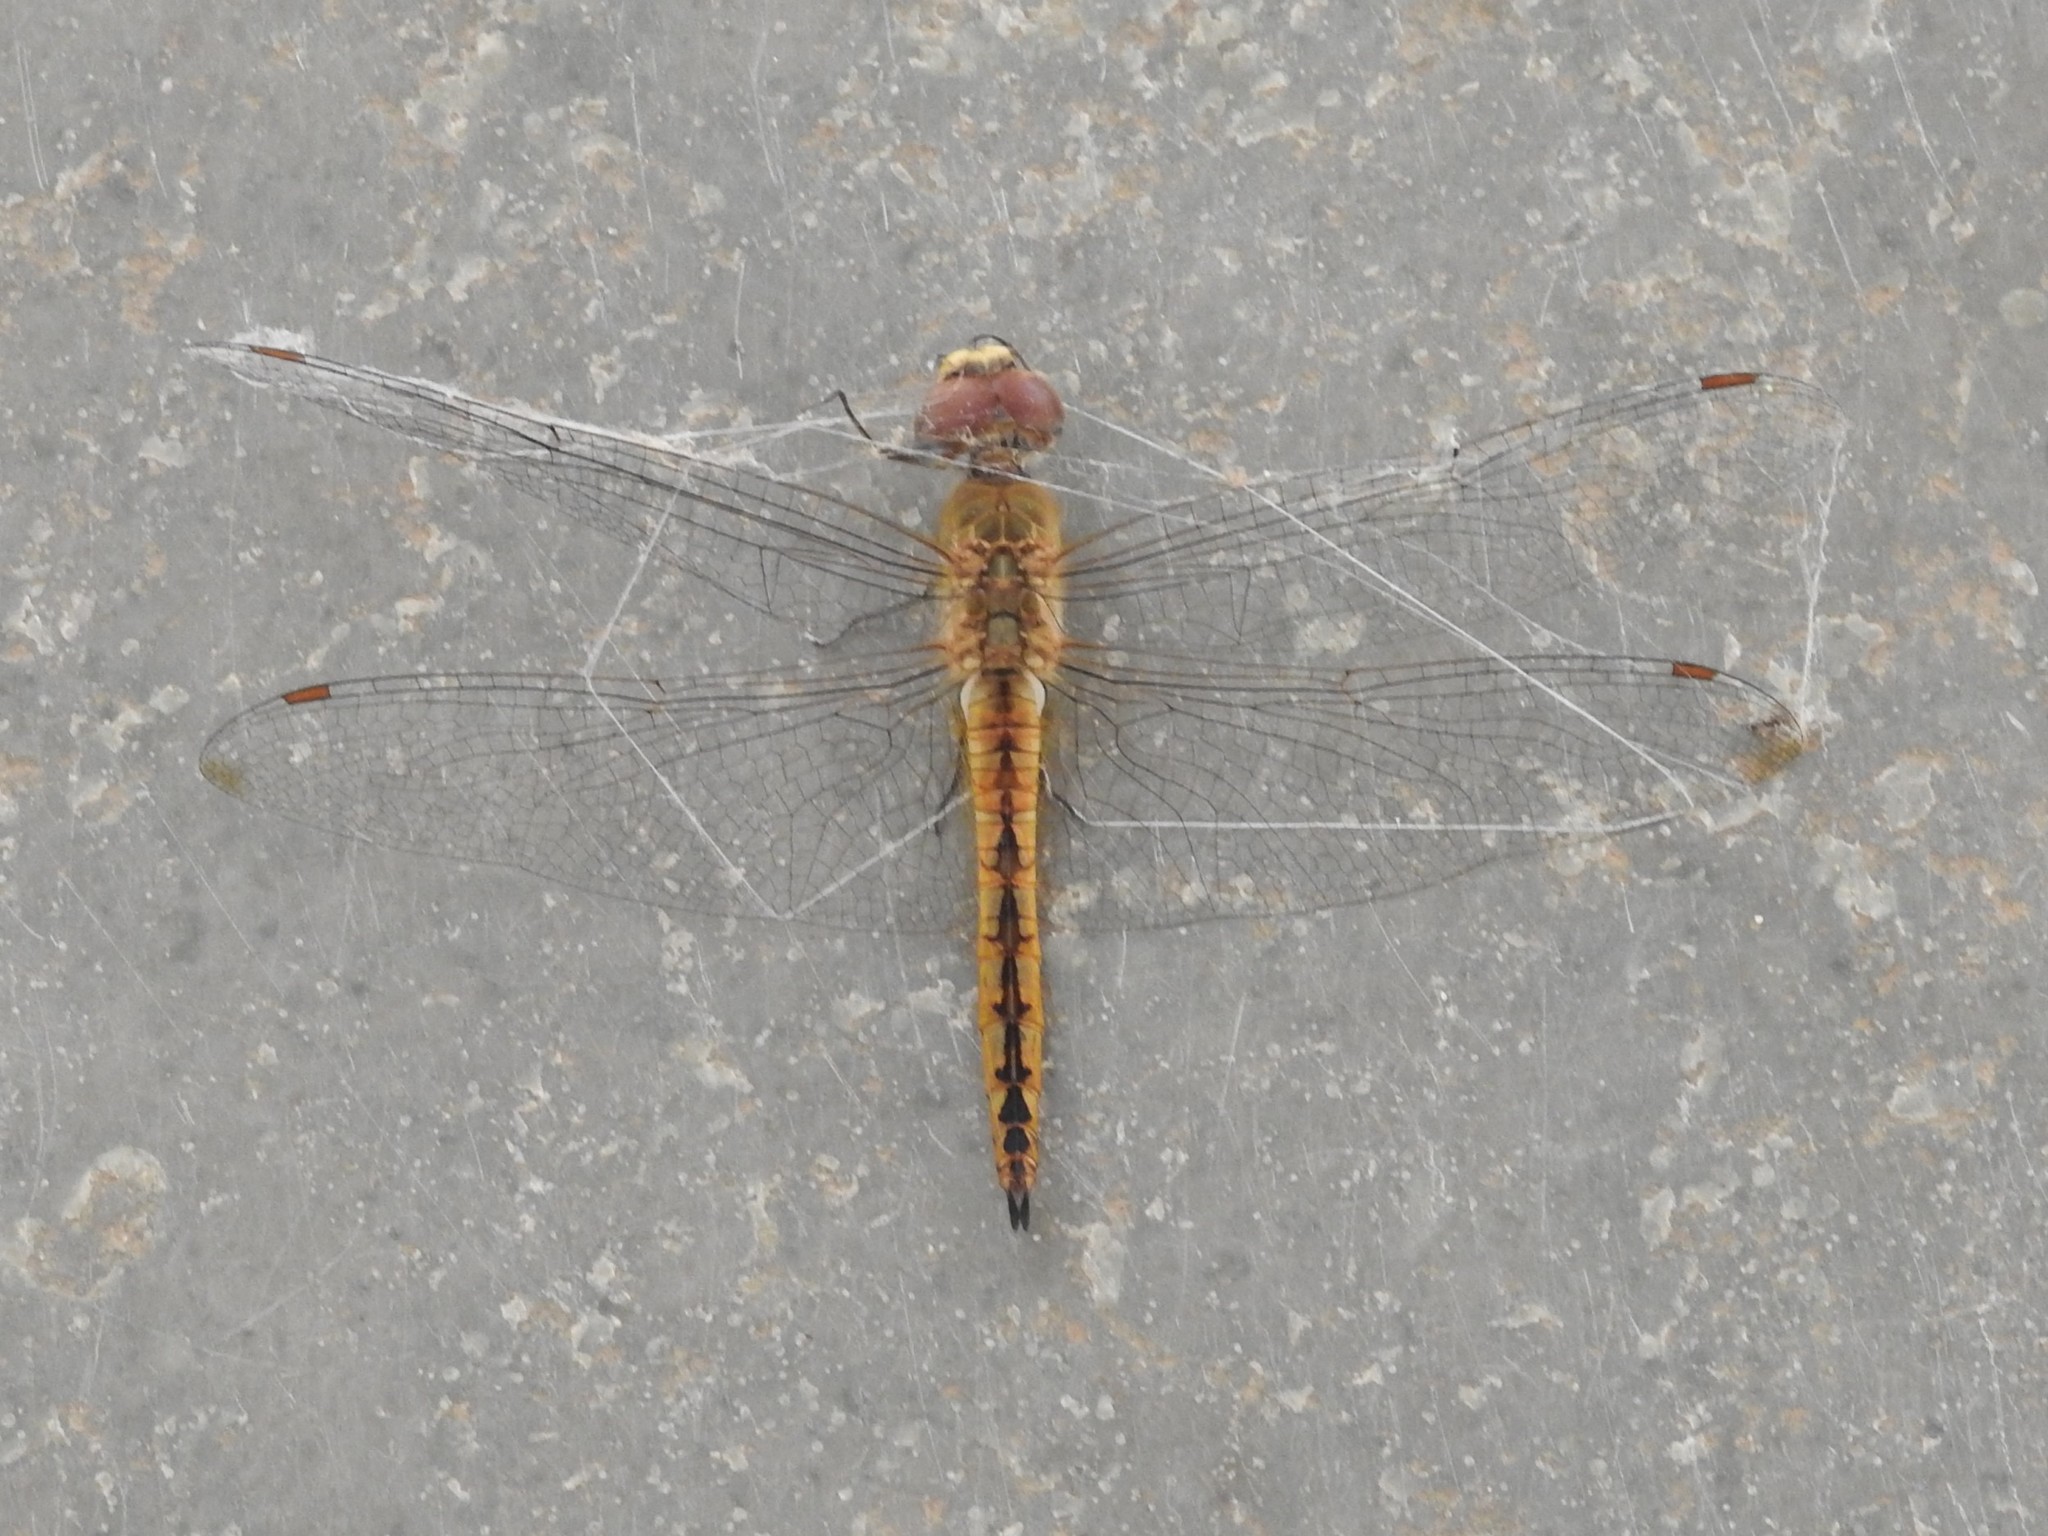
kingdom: Animalia
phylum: Arthropoda
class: Insecta
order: Odonata
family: Libellulidae
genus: Pantala
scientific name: Pantala flavescens
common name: Wandering glider
